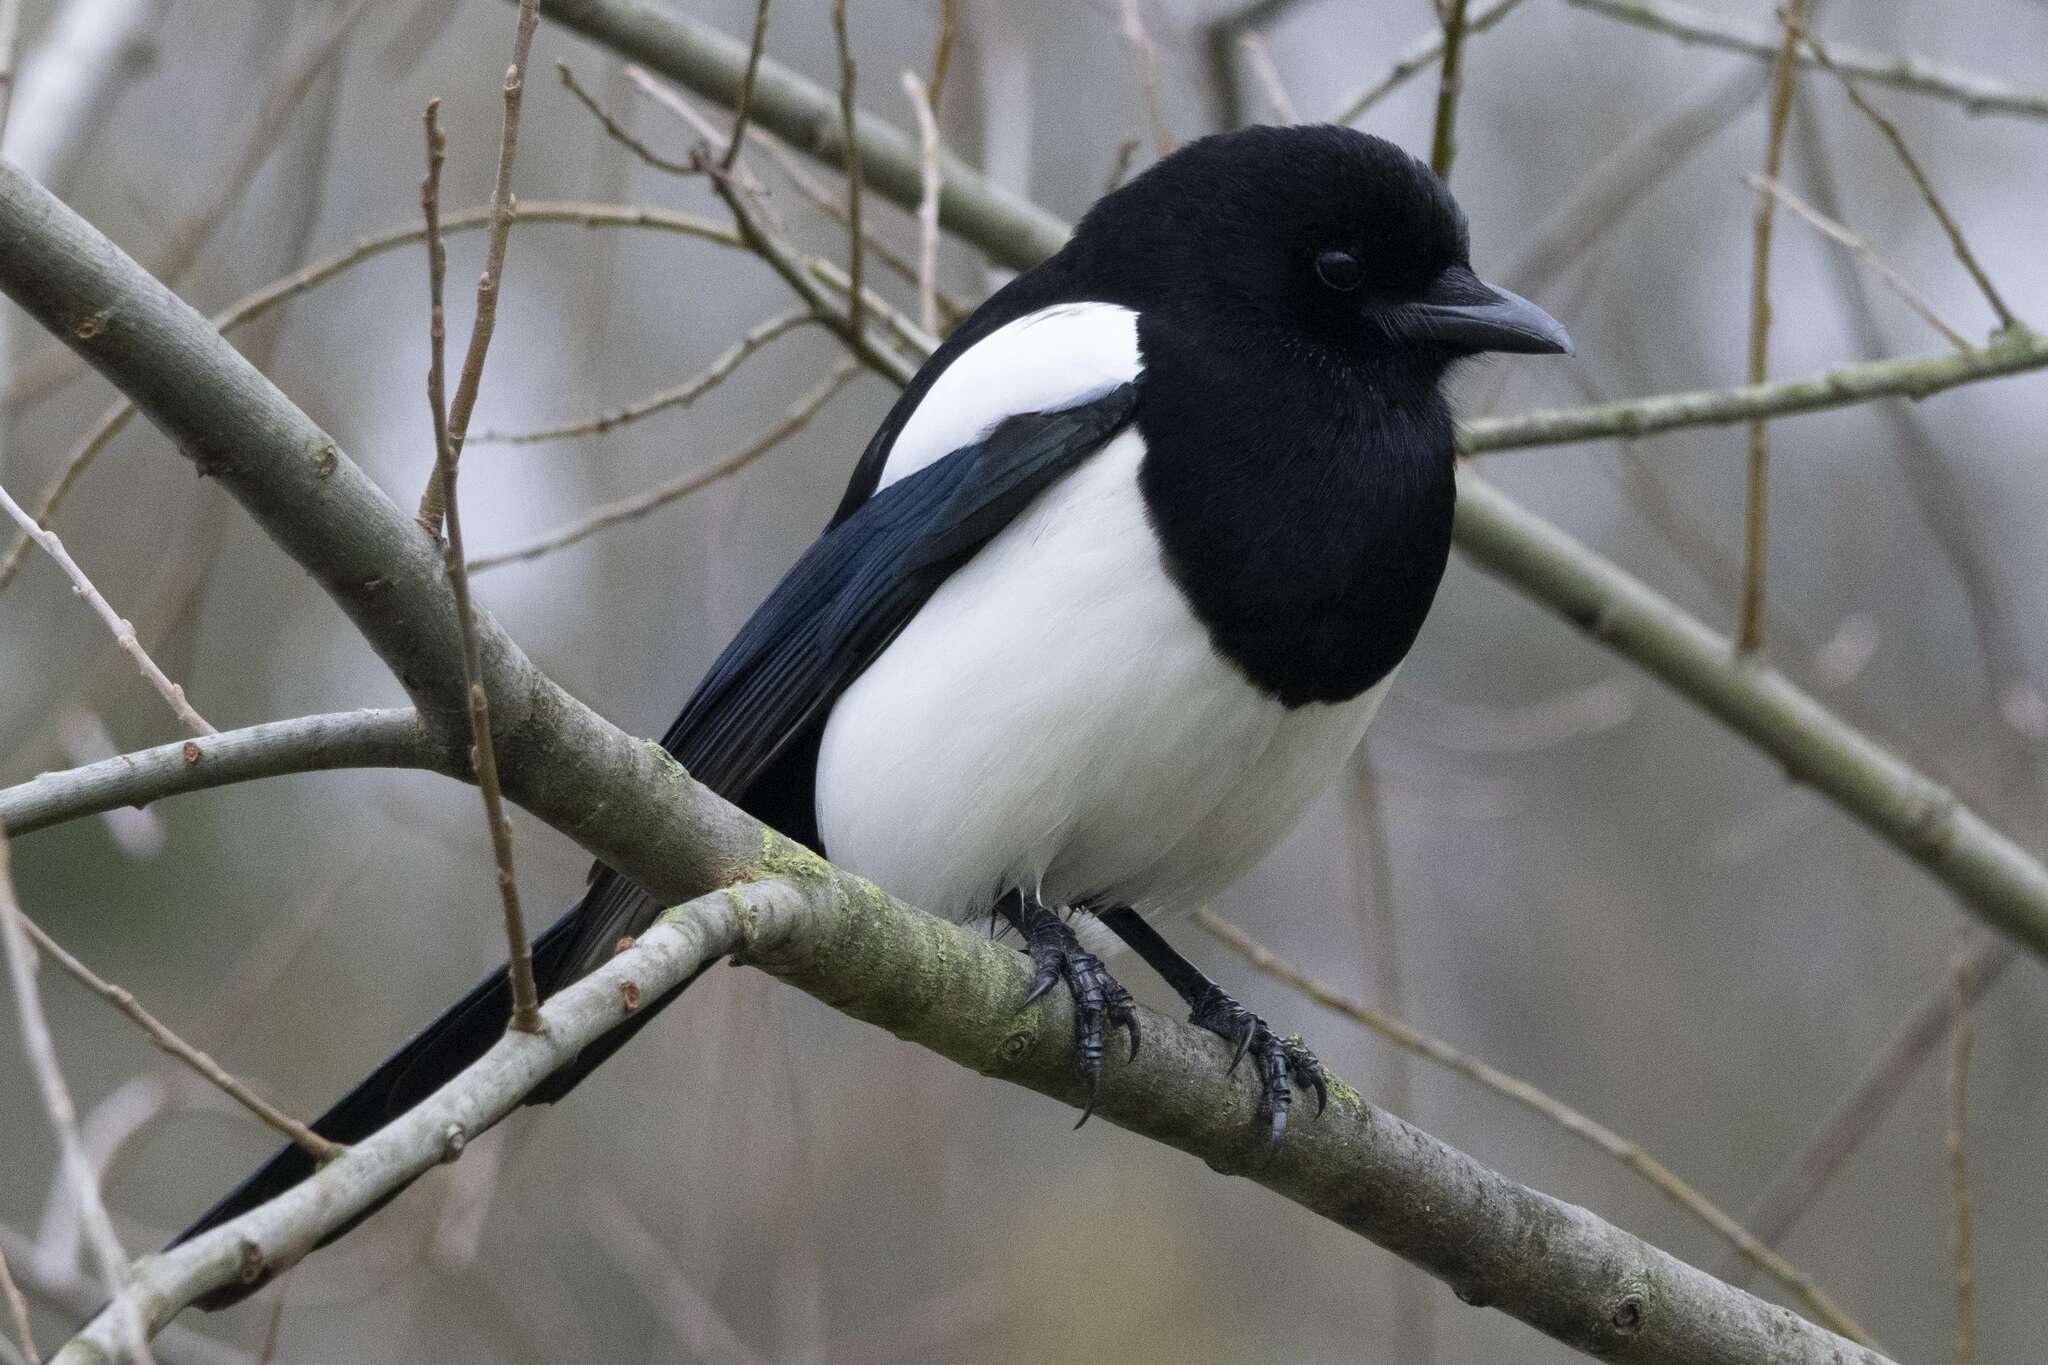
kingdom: Animalia
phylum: Chordata
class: Aves
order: Passeriformes
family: Corvidae
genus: Pica
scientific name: Pica pica
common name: Eurasian magpie
